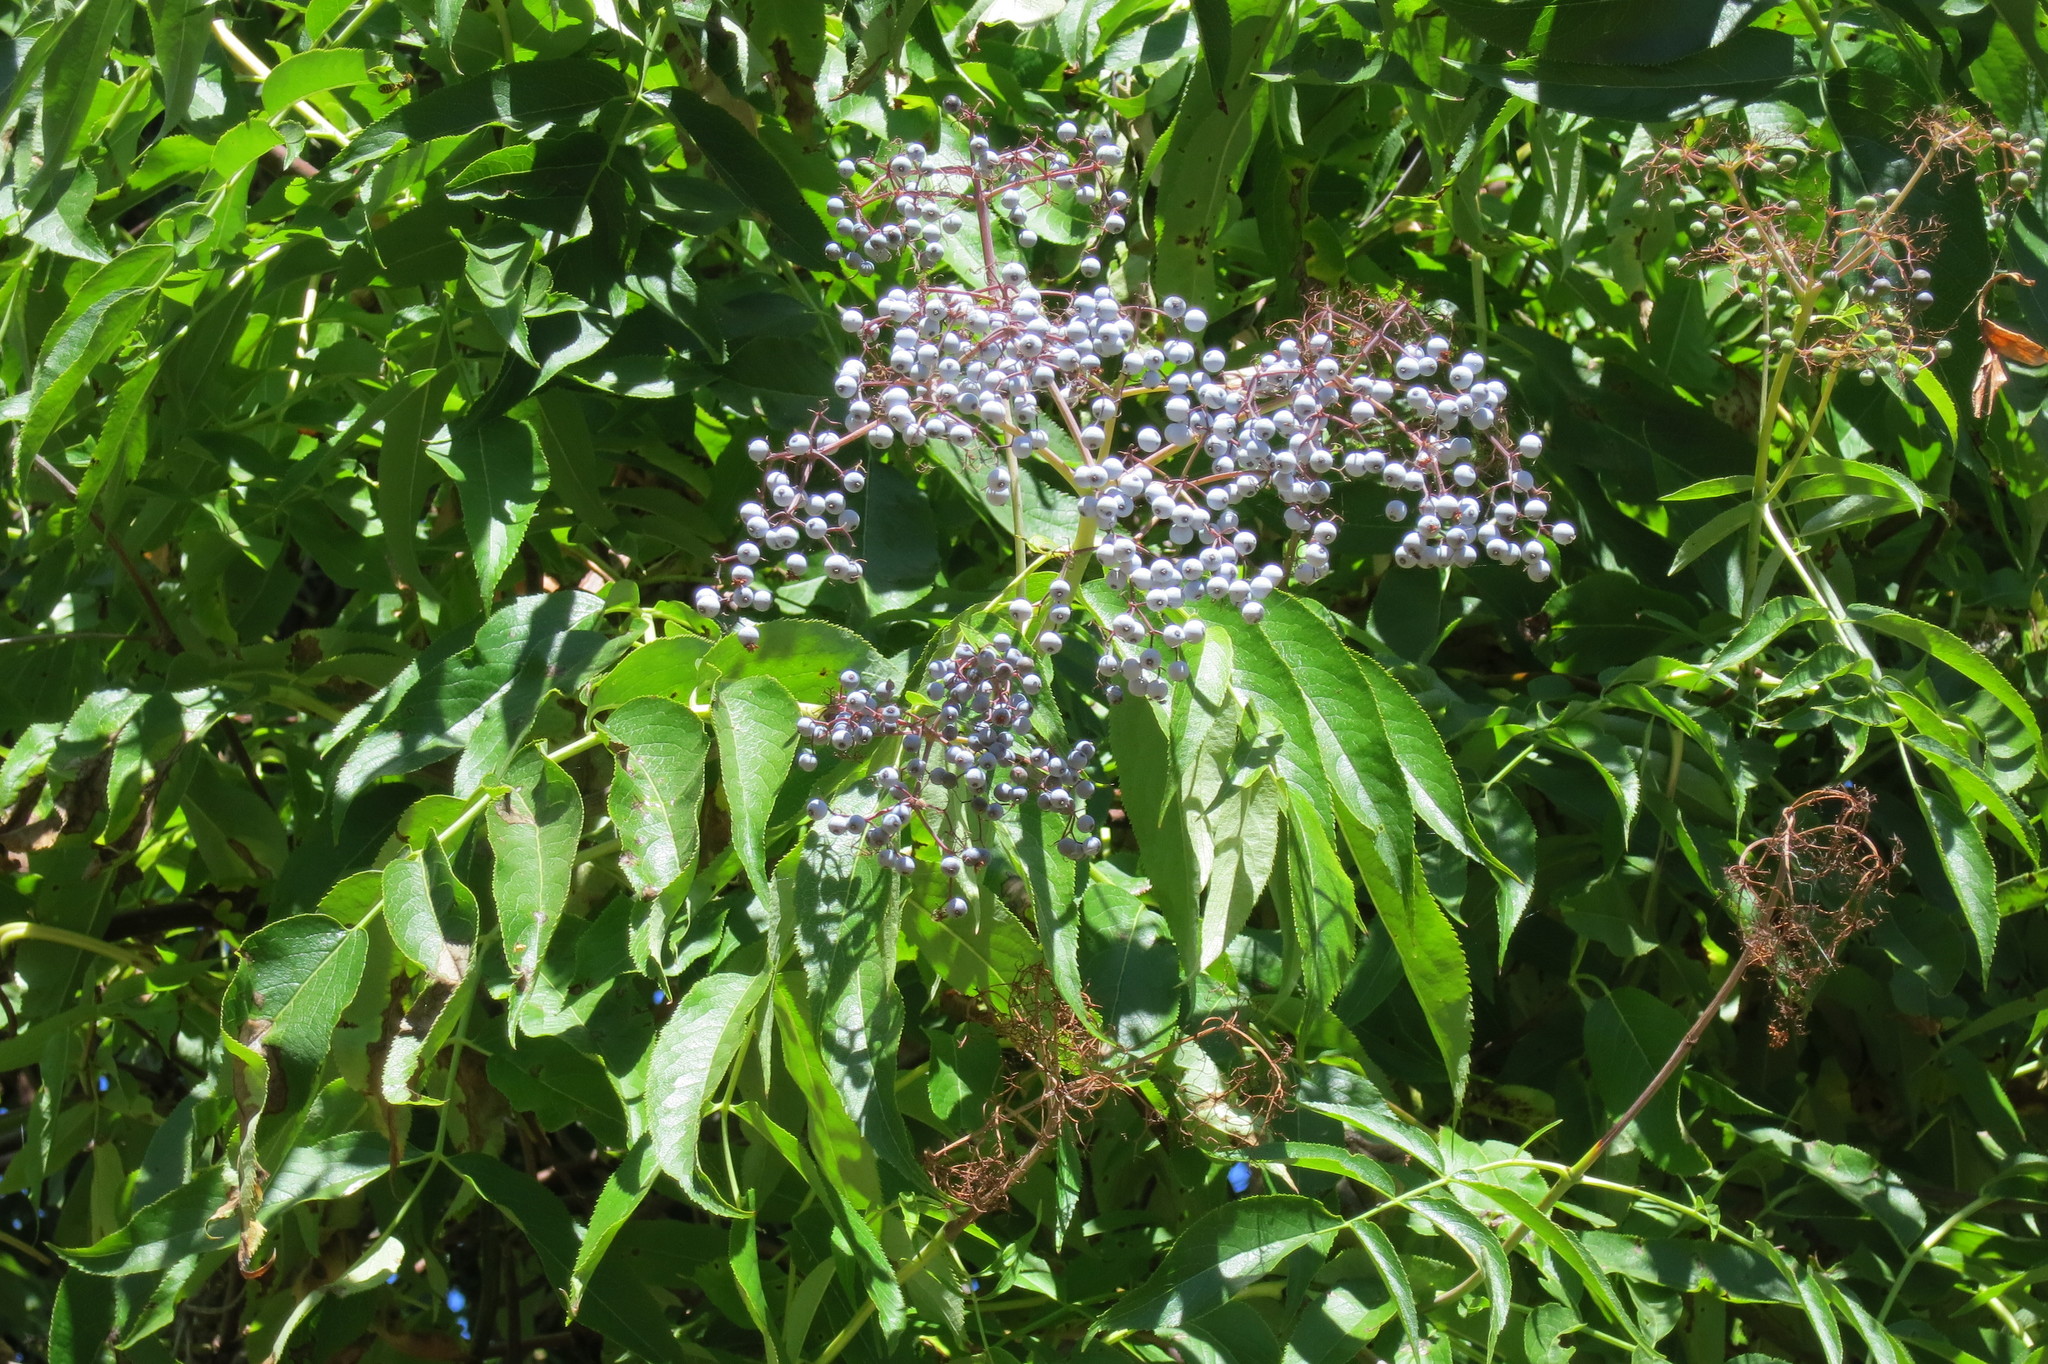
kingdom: Plantae
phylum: Tracheophyta
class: Magnoliopsida
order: Dipsacales
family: Viburnaceae
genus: Sambucus
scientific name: Sambucus cerulea
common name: Blue elder
